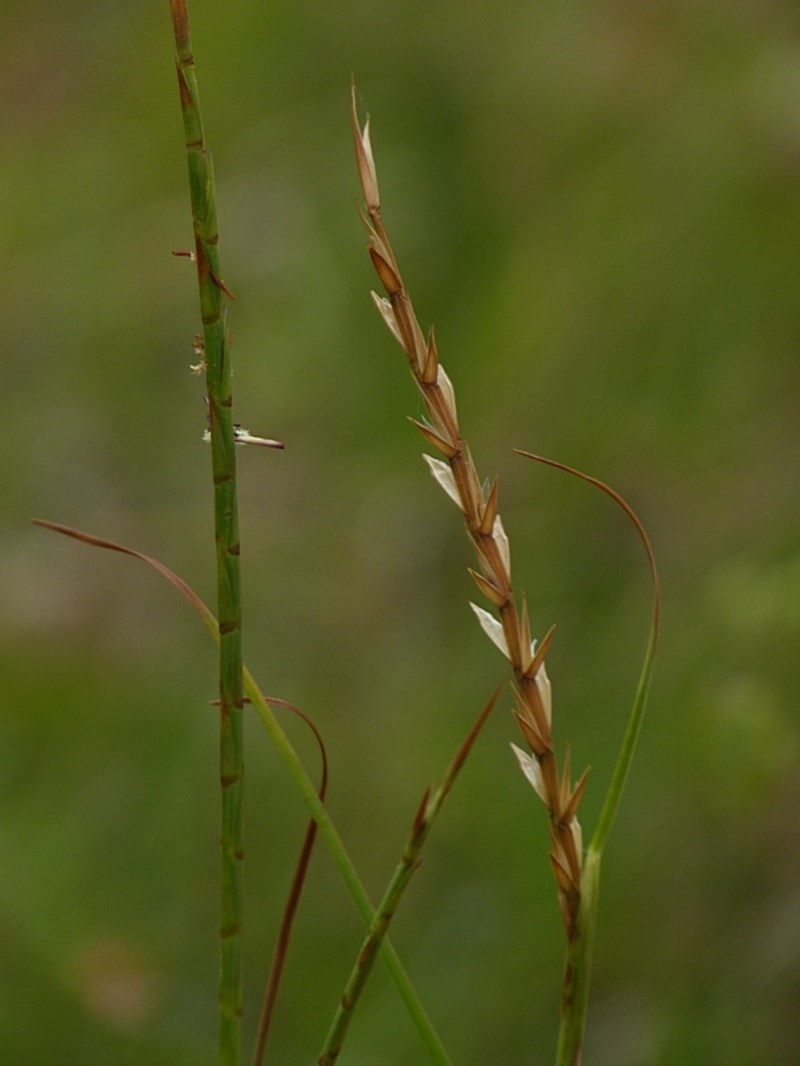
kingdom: Plantae
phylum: Tracheophyta
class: Liliopsida
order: Poales
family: Poaceae
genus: Hemarthria
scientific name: Hemarthria uncinata
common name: Matgrass
